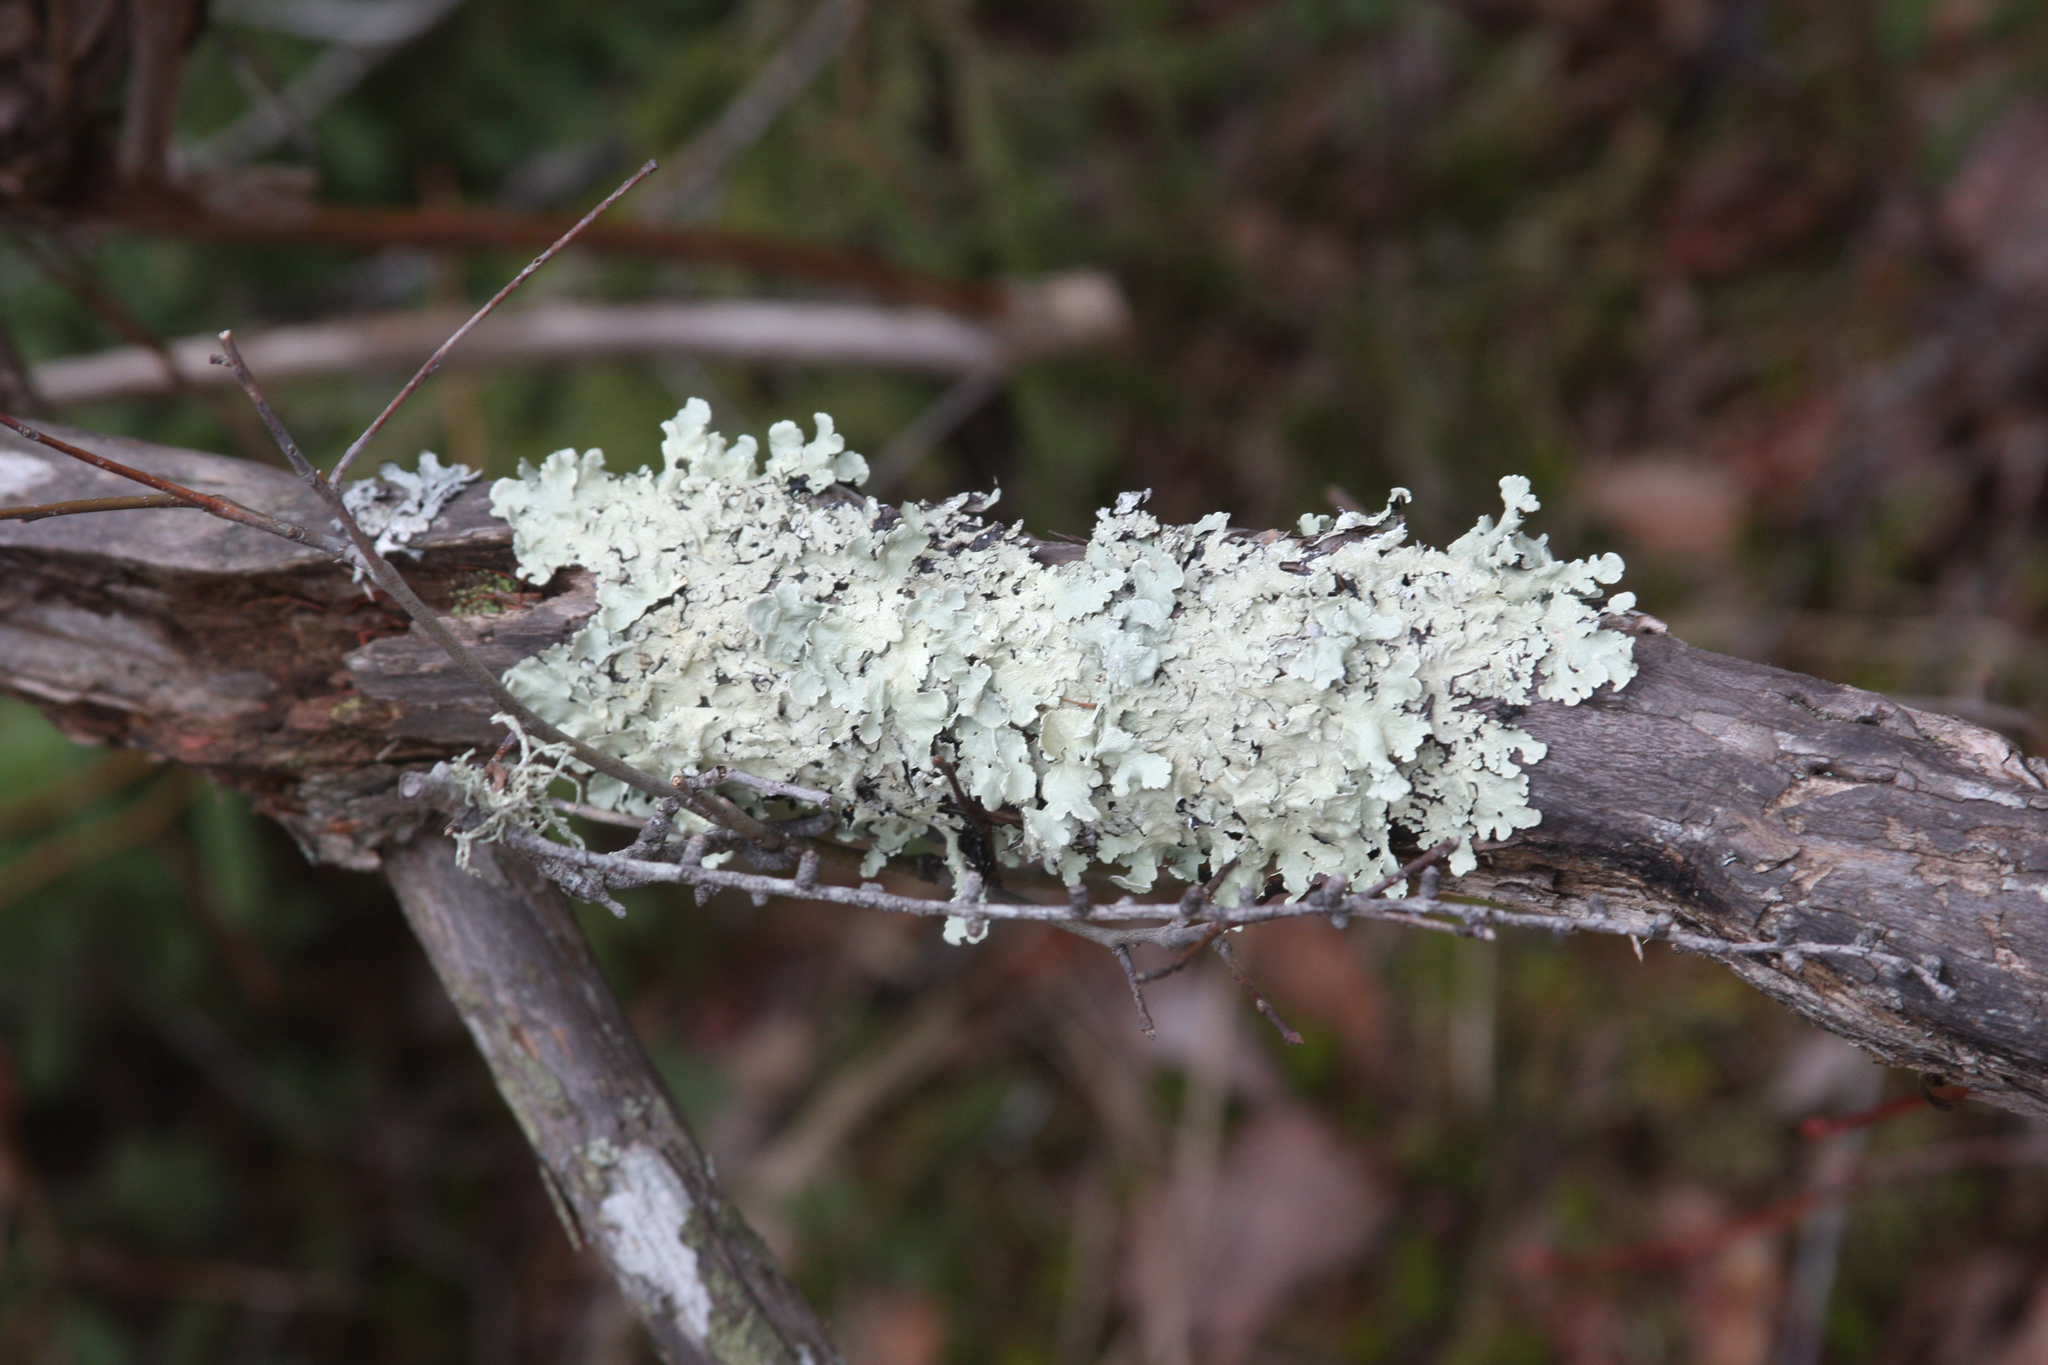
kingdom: Fungi
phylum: Ascomycota
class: Lecanoromycetes
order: Lecanorales
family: Parmeliaceae
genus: Flavoparmelia
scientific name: Flavoparmelia caperata
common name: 40-mile per hour lichen
